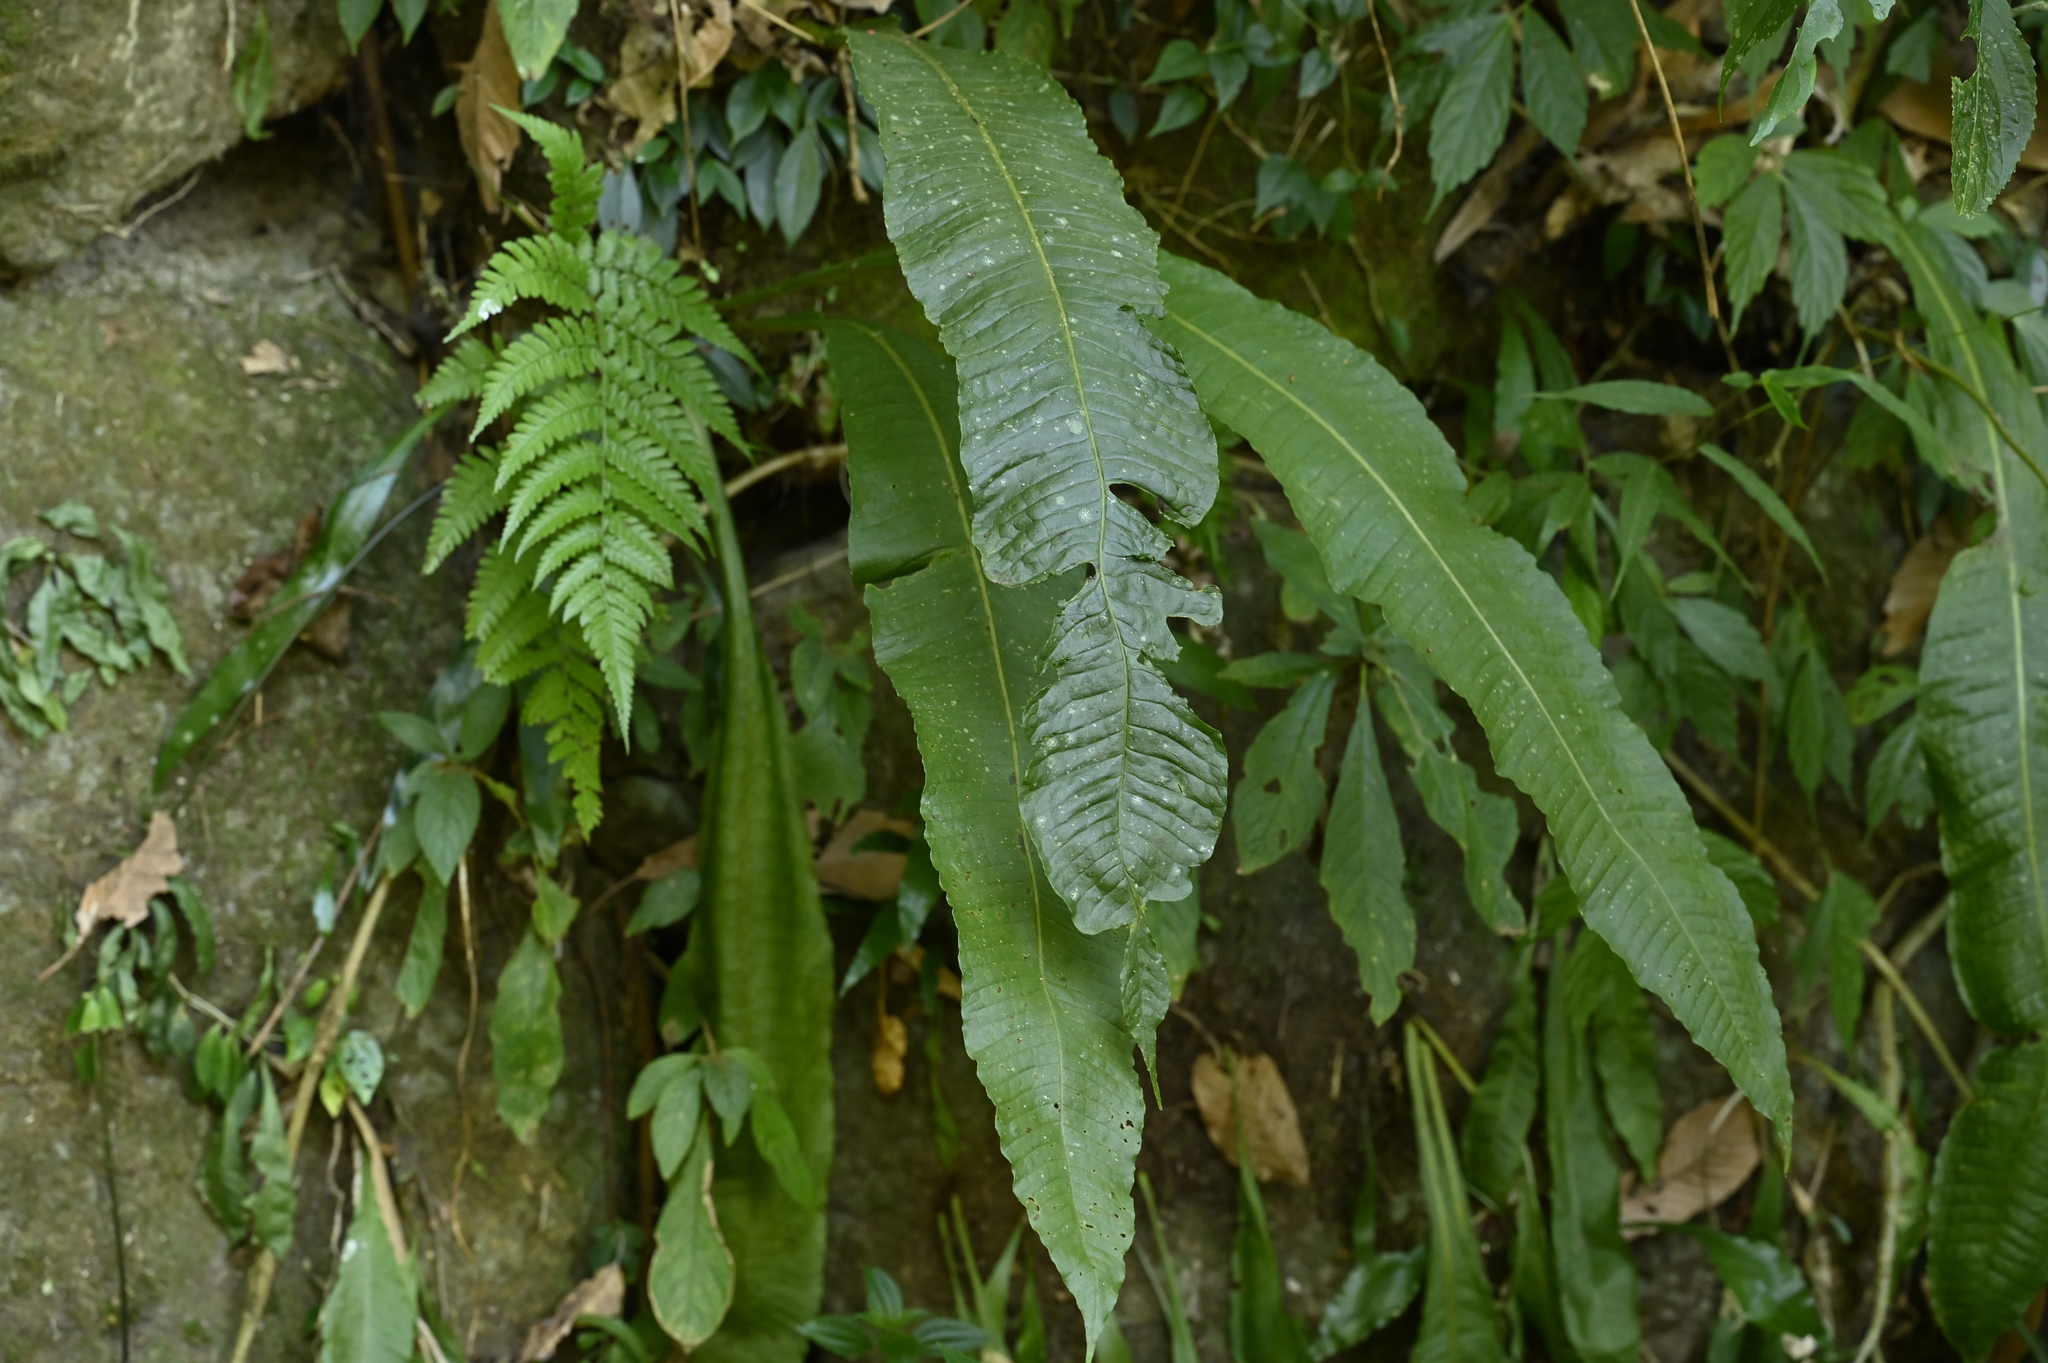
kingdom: Plantae
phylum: Tracheophyta
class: Polypodiopsida
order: Polypodiales
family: Polypodiaceae
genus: Bosmania
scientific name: Bosmania membranacea
